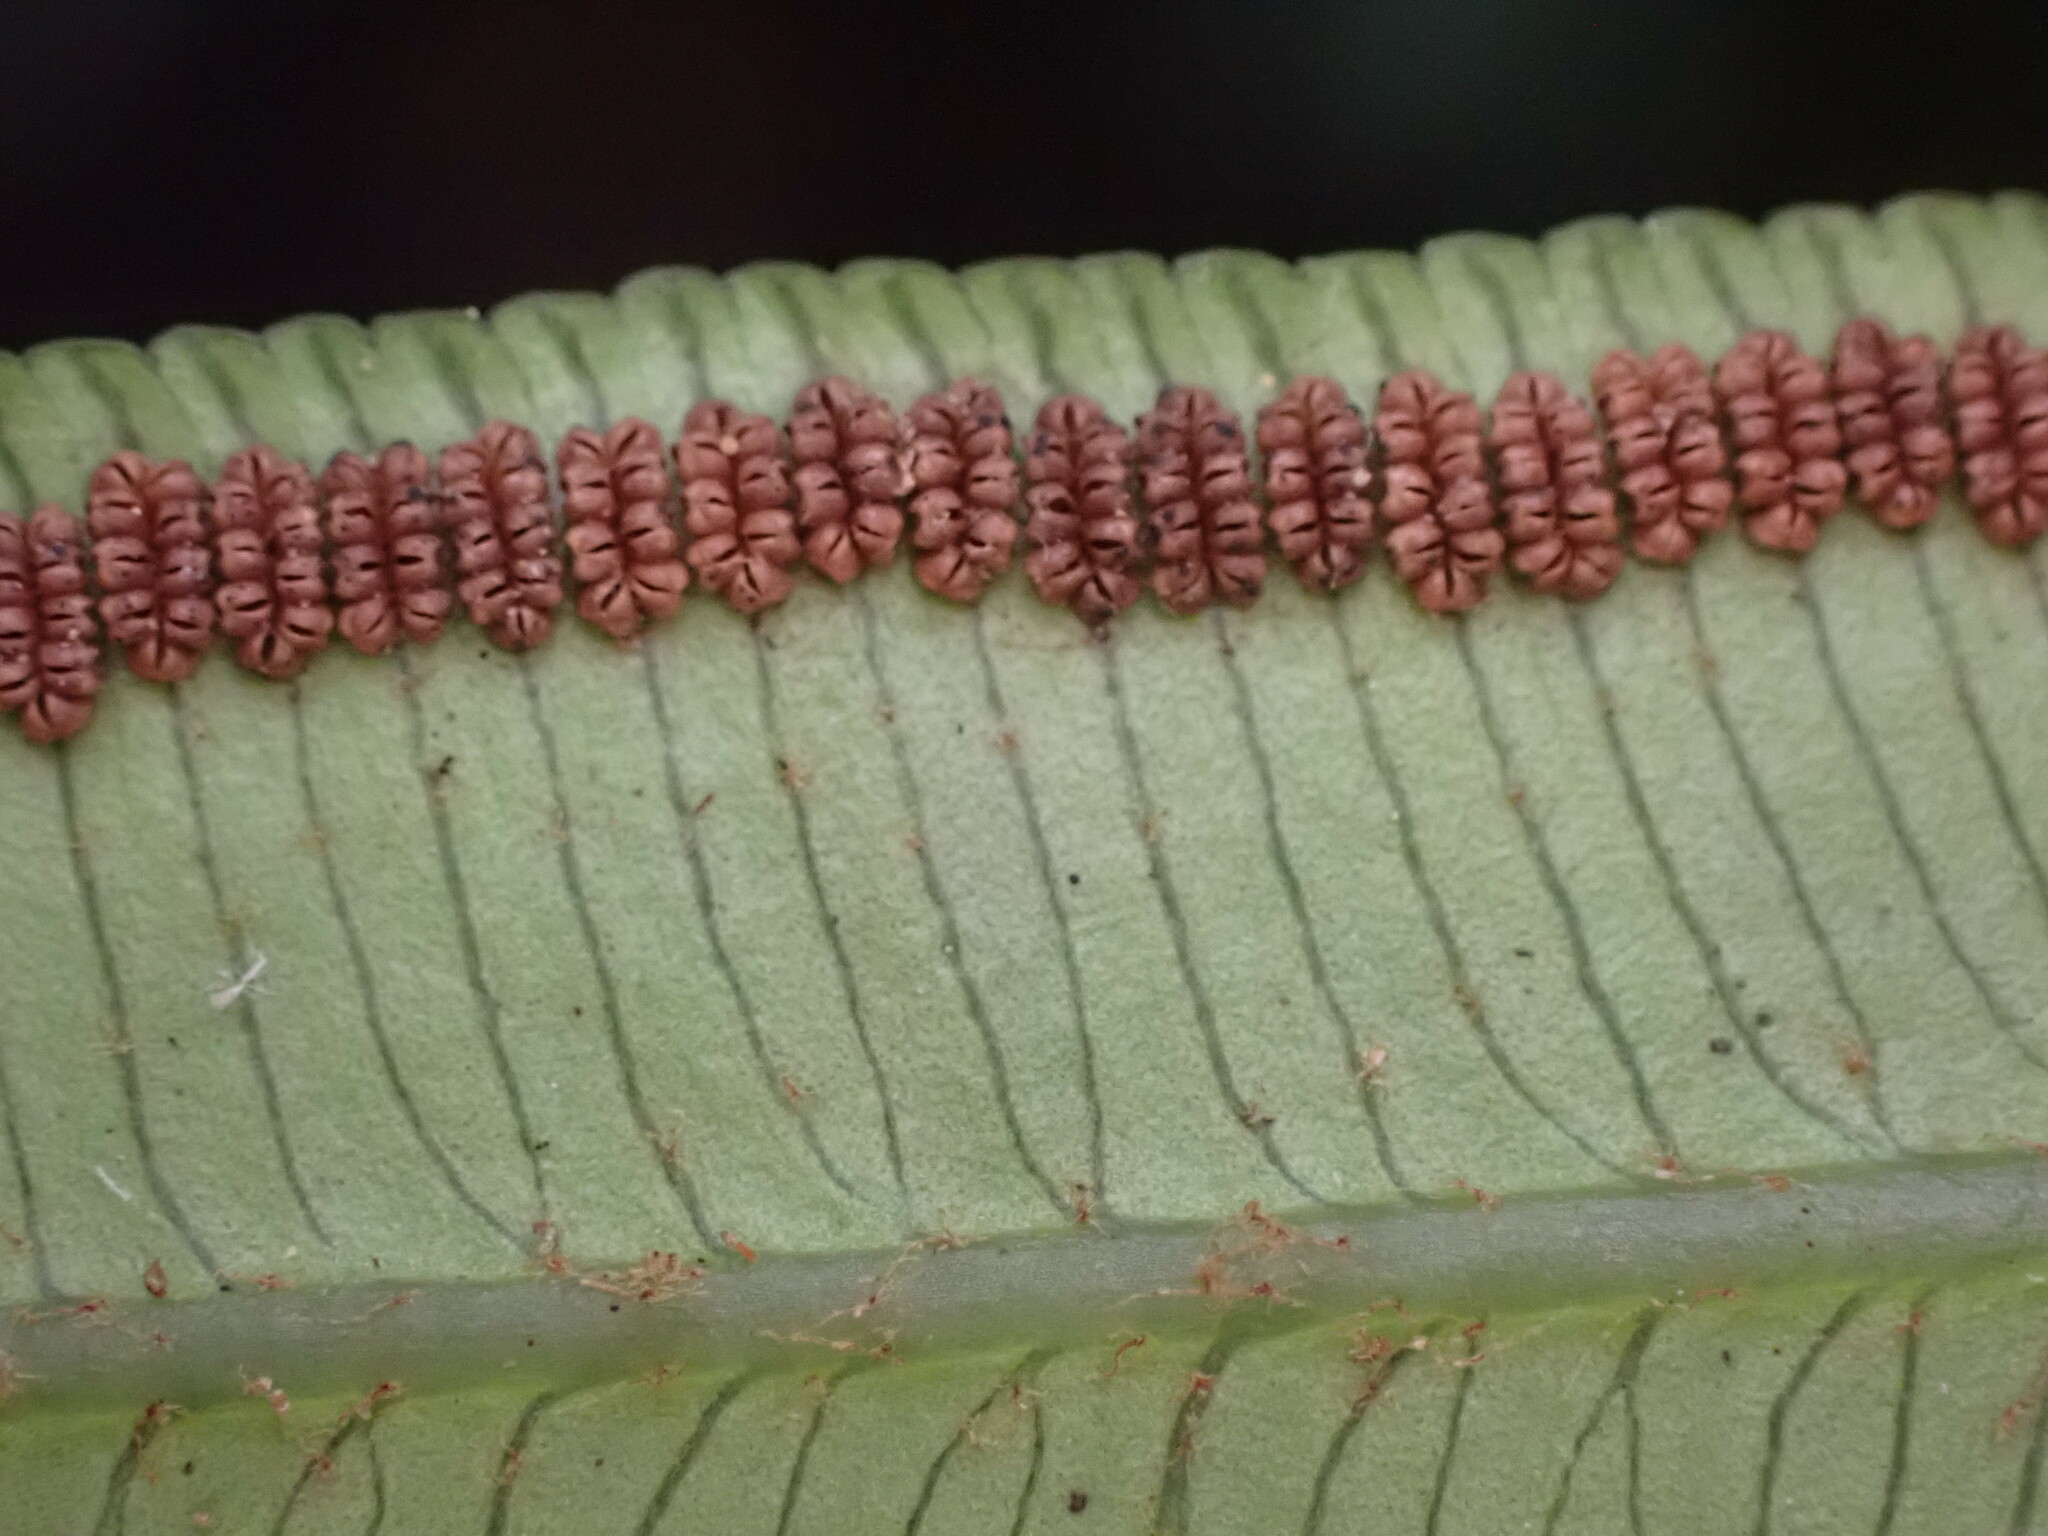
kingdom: Plantae
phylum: Tracheophyta
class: Polypodiopsida
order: Marattiales
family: Marattiaceae
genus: Angiopteris
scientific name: Angiopteris evecta
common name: Mule's-foot fern
